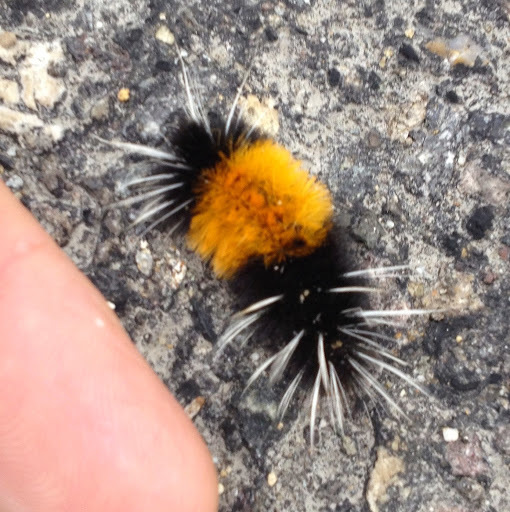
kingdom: Animalia
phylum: Arthropoda
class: Insecta
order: Lepidoptera
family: Erebidae
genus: Lophocampa
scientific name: Lophocampa maculata
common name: Spotted tussock moth
